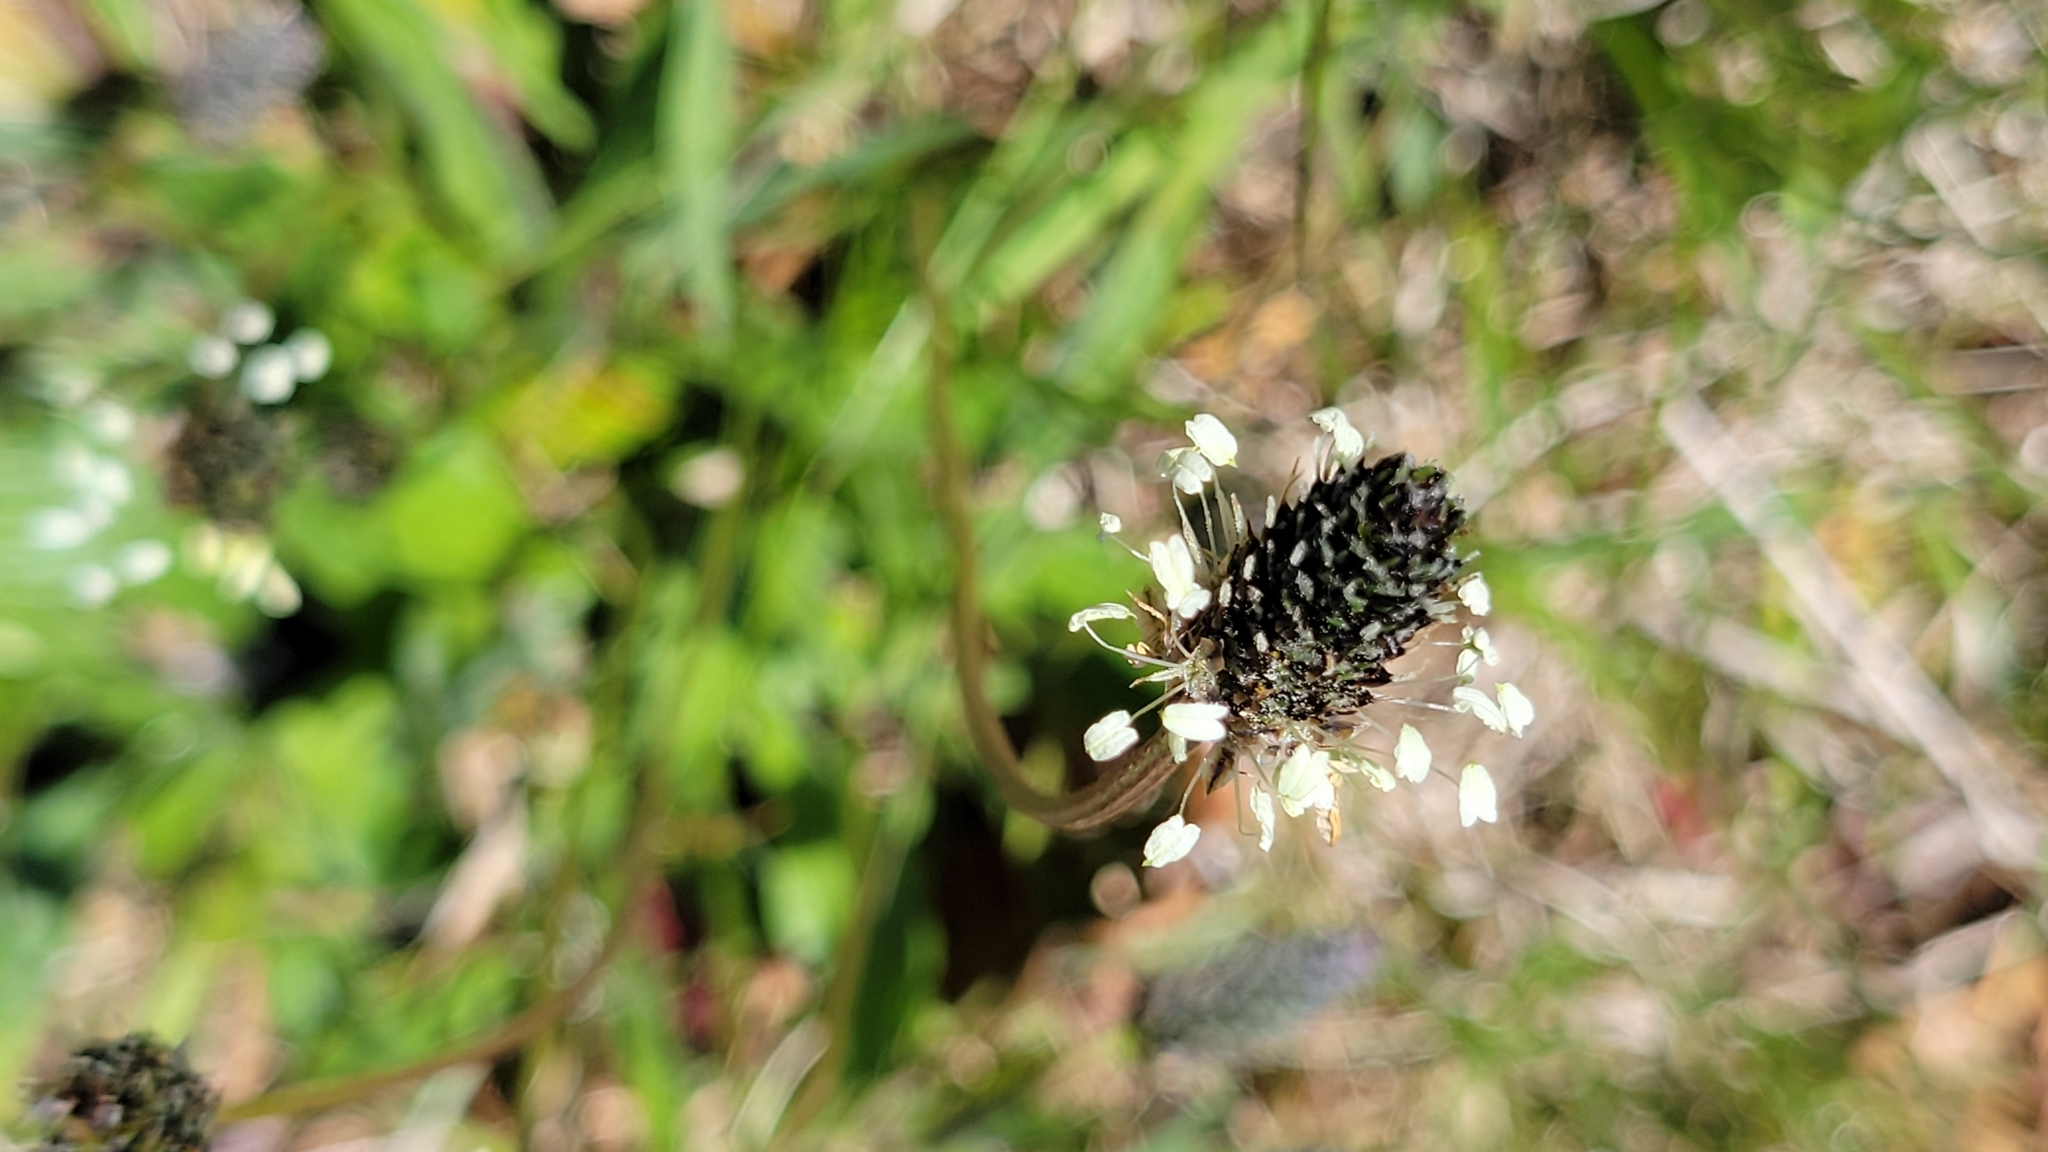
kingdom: Plantae
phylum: Tracheophyta
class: Magnoliopsida
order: Lamiales
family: Plantaginaceae
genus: Plantago
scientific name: Plantago lanceolata
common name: Ribwort plantain
